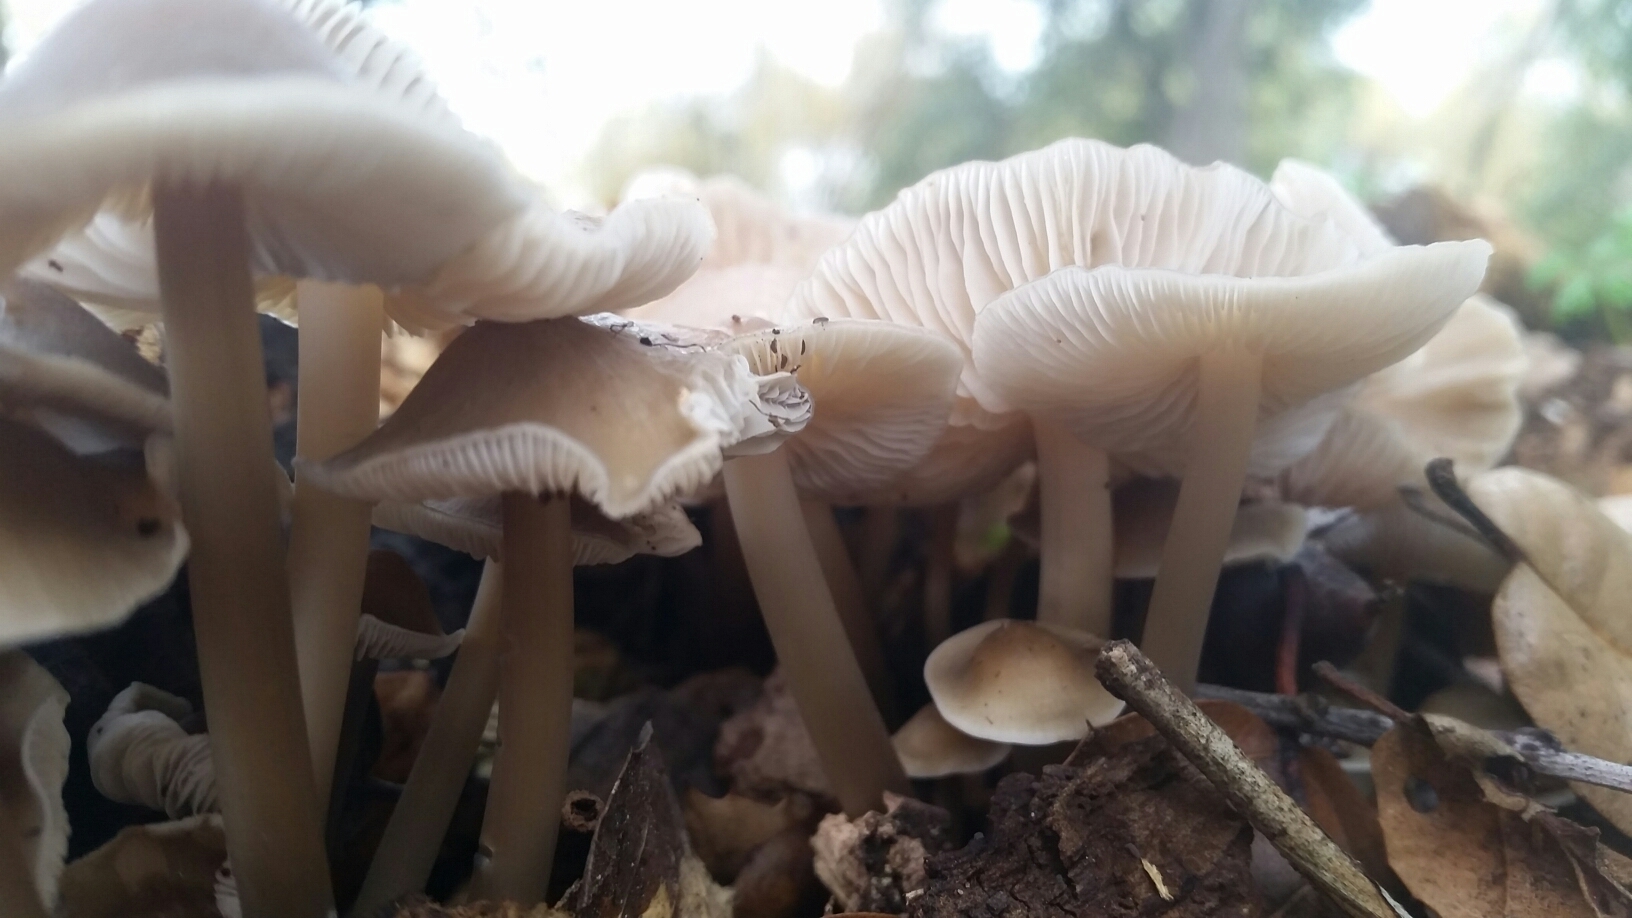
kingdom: Fungi
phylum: Basidiomycota
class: Agaricomycetes
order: Agaricales
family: Mycenaceae
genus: Mycena
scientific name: Mycena galericulata
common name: Bonnet mycena
